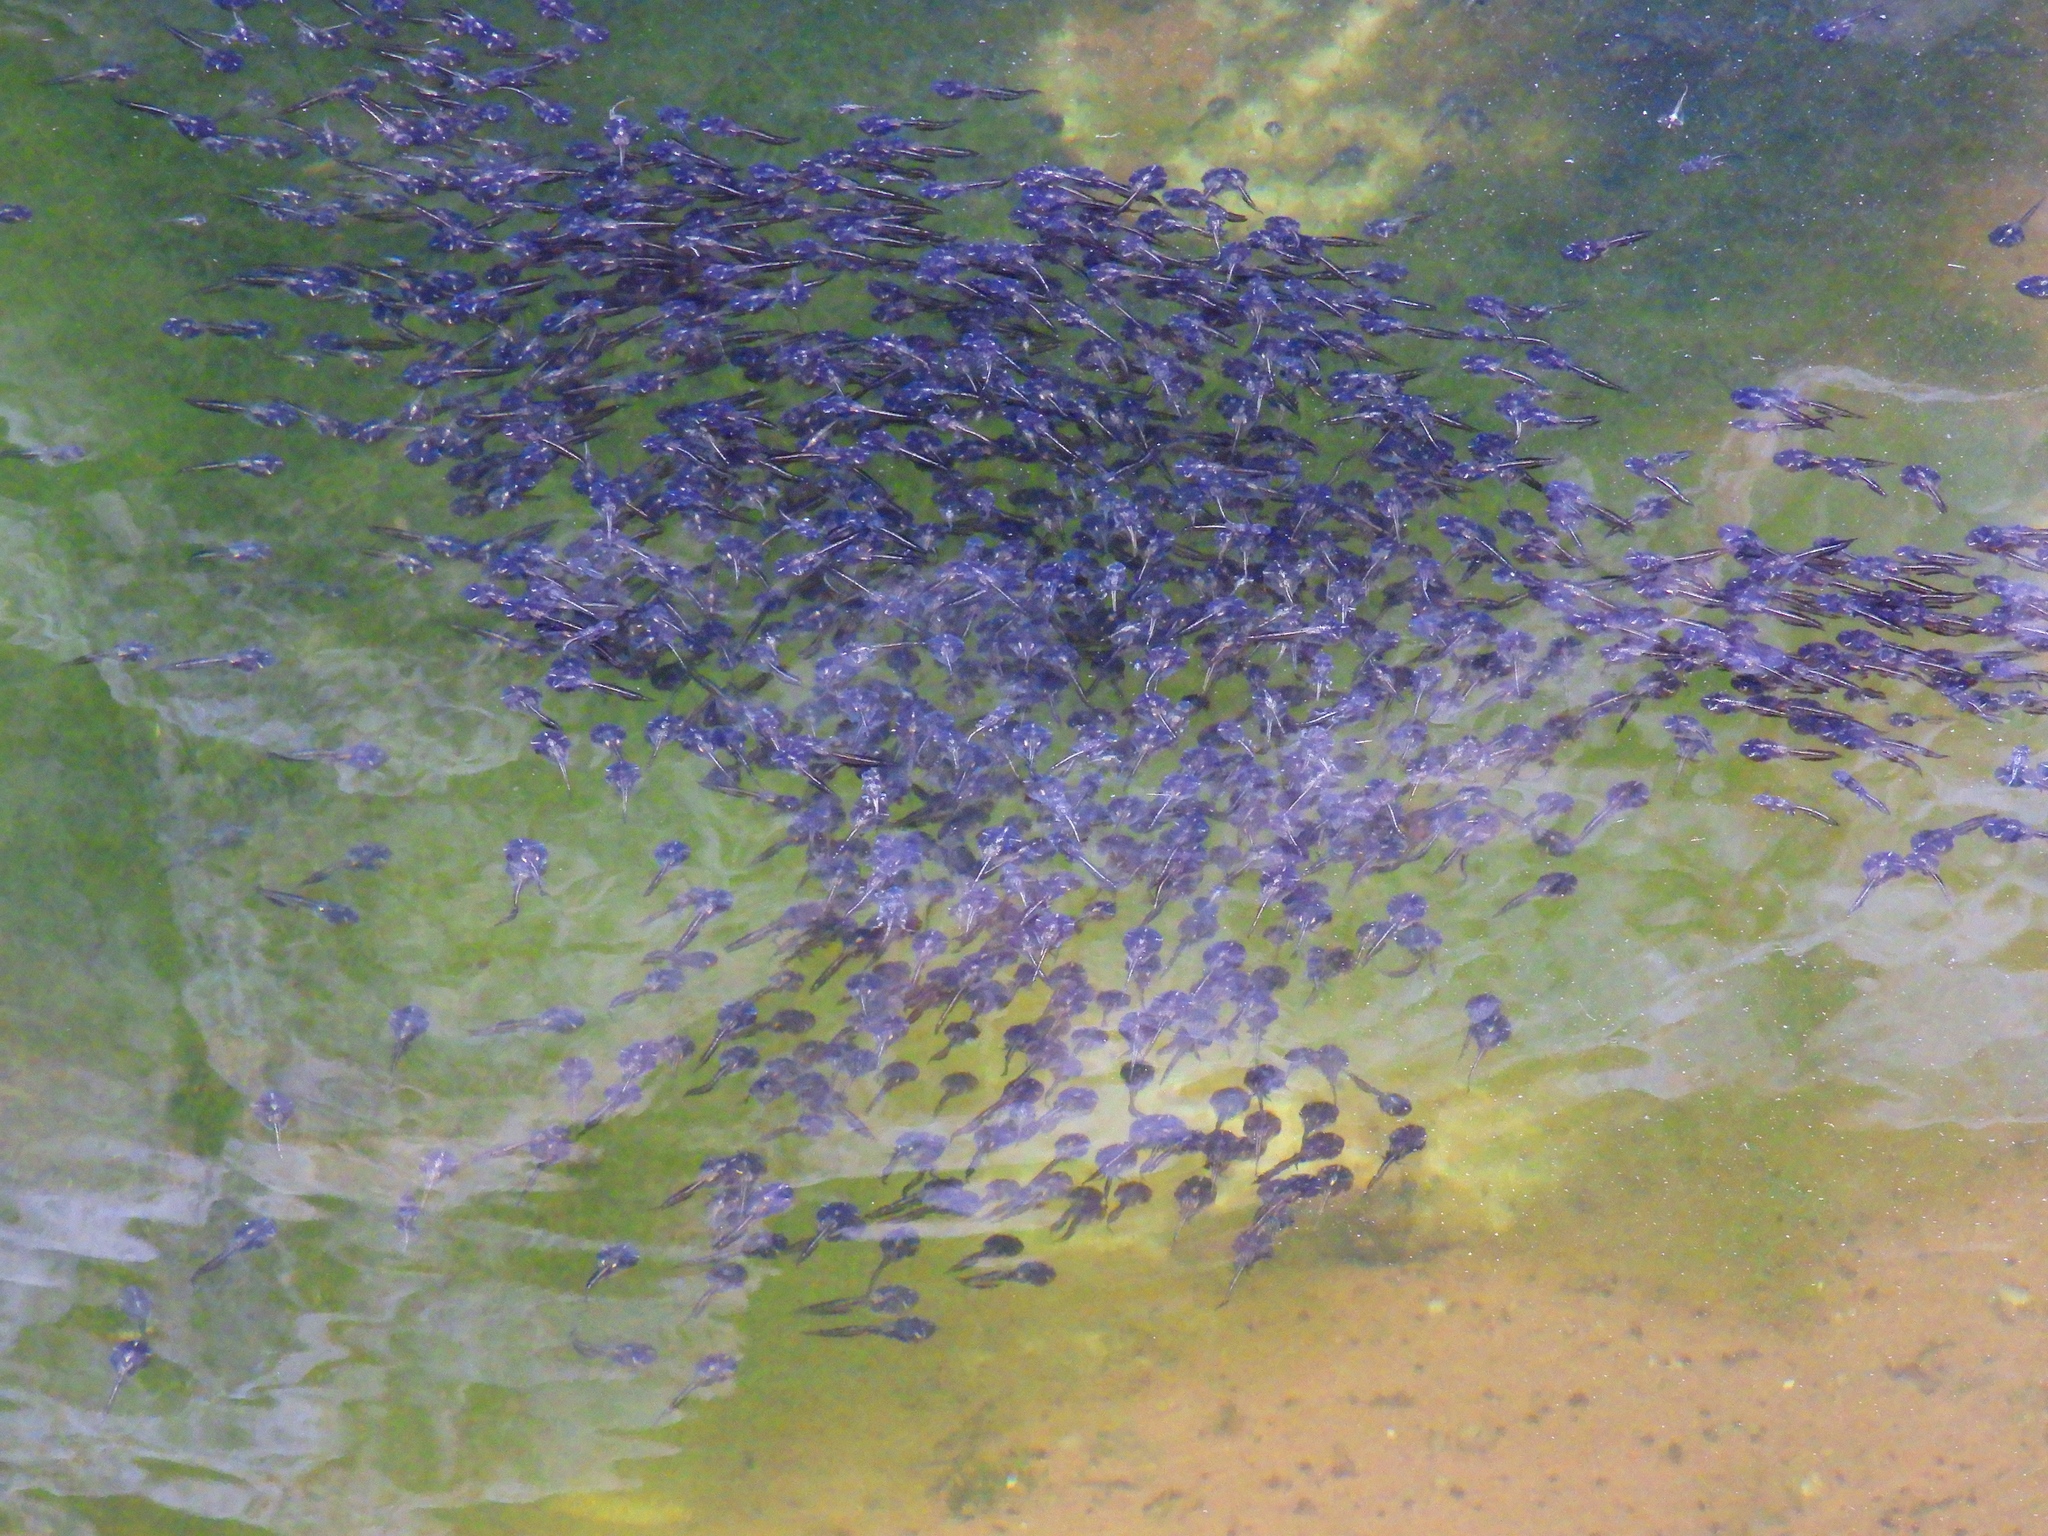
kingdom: Animalia
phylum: Chordata
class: Amphibia
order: Anura
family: Microhylidae
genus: Phrynomantis
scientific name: Phrynomantis annectens
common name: Marbled rubber frog
